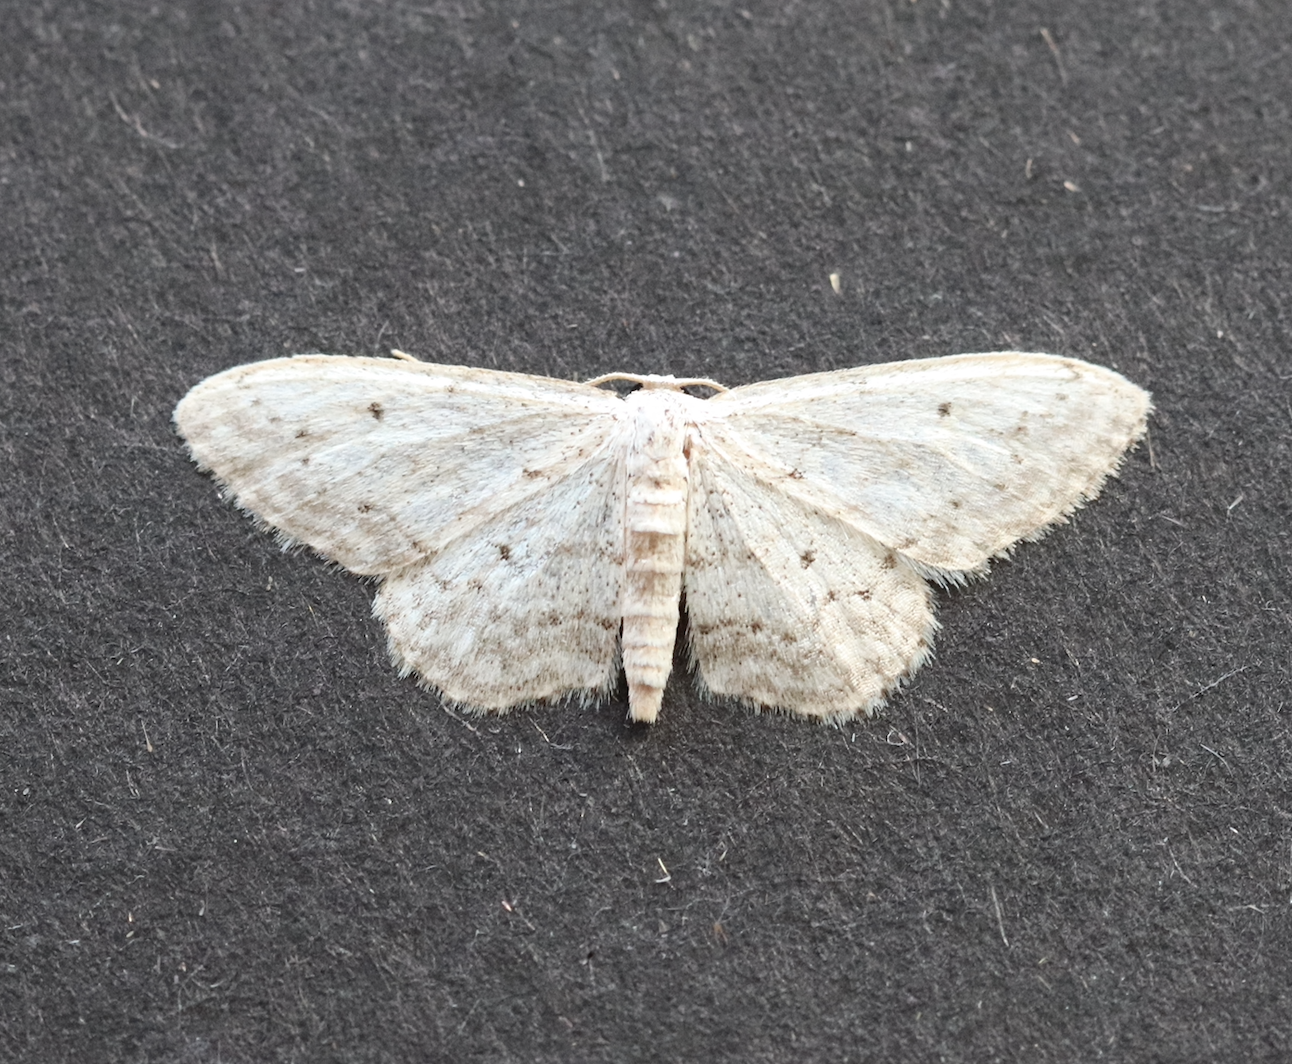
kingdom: Animalia
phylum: Arthropoda
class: Insecta
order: Lepidoptera
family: Geometridae
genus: Idaea
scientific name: Idaea seriata
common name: Small dusty wave
